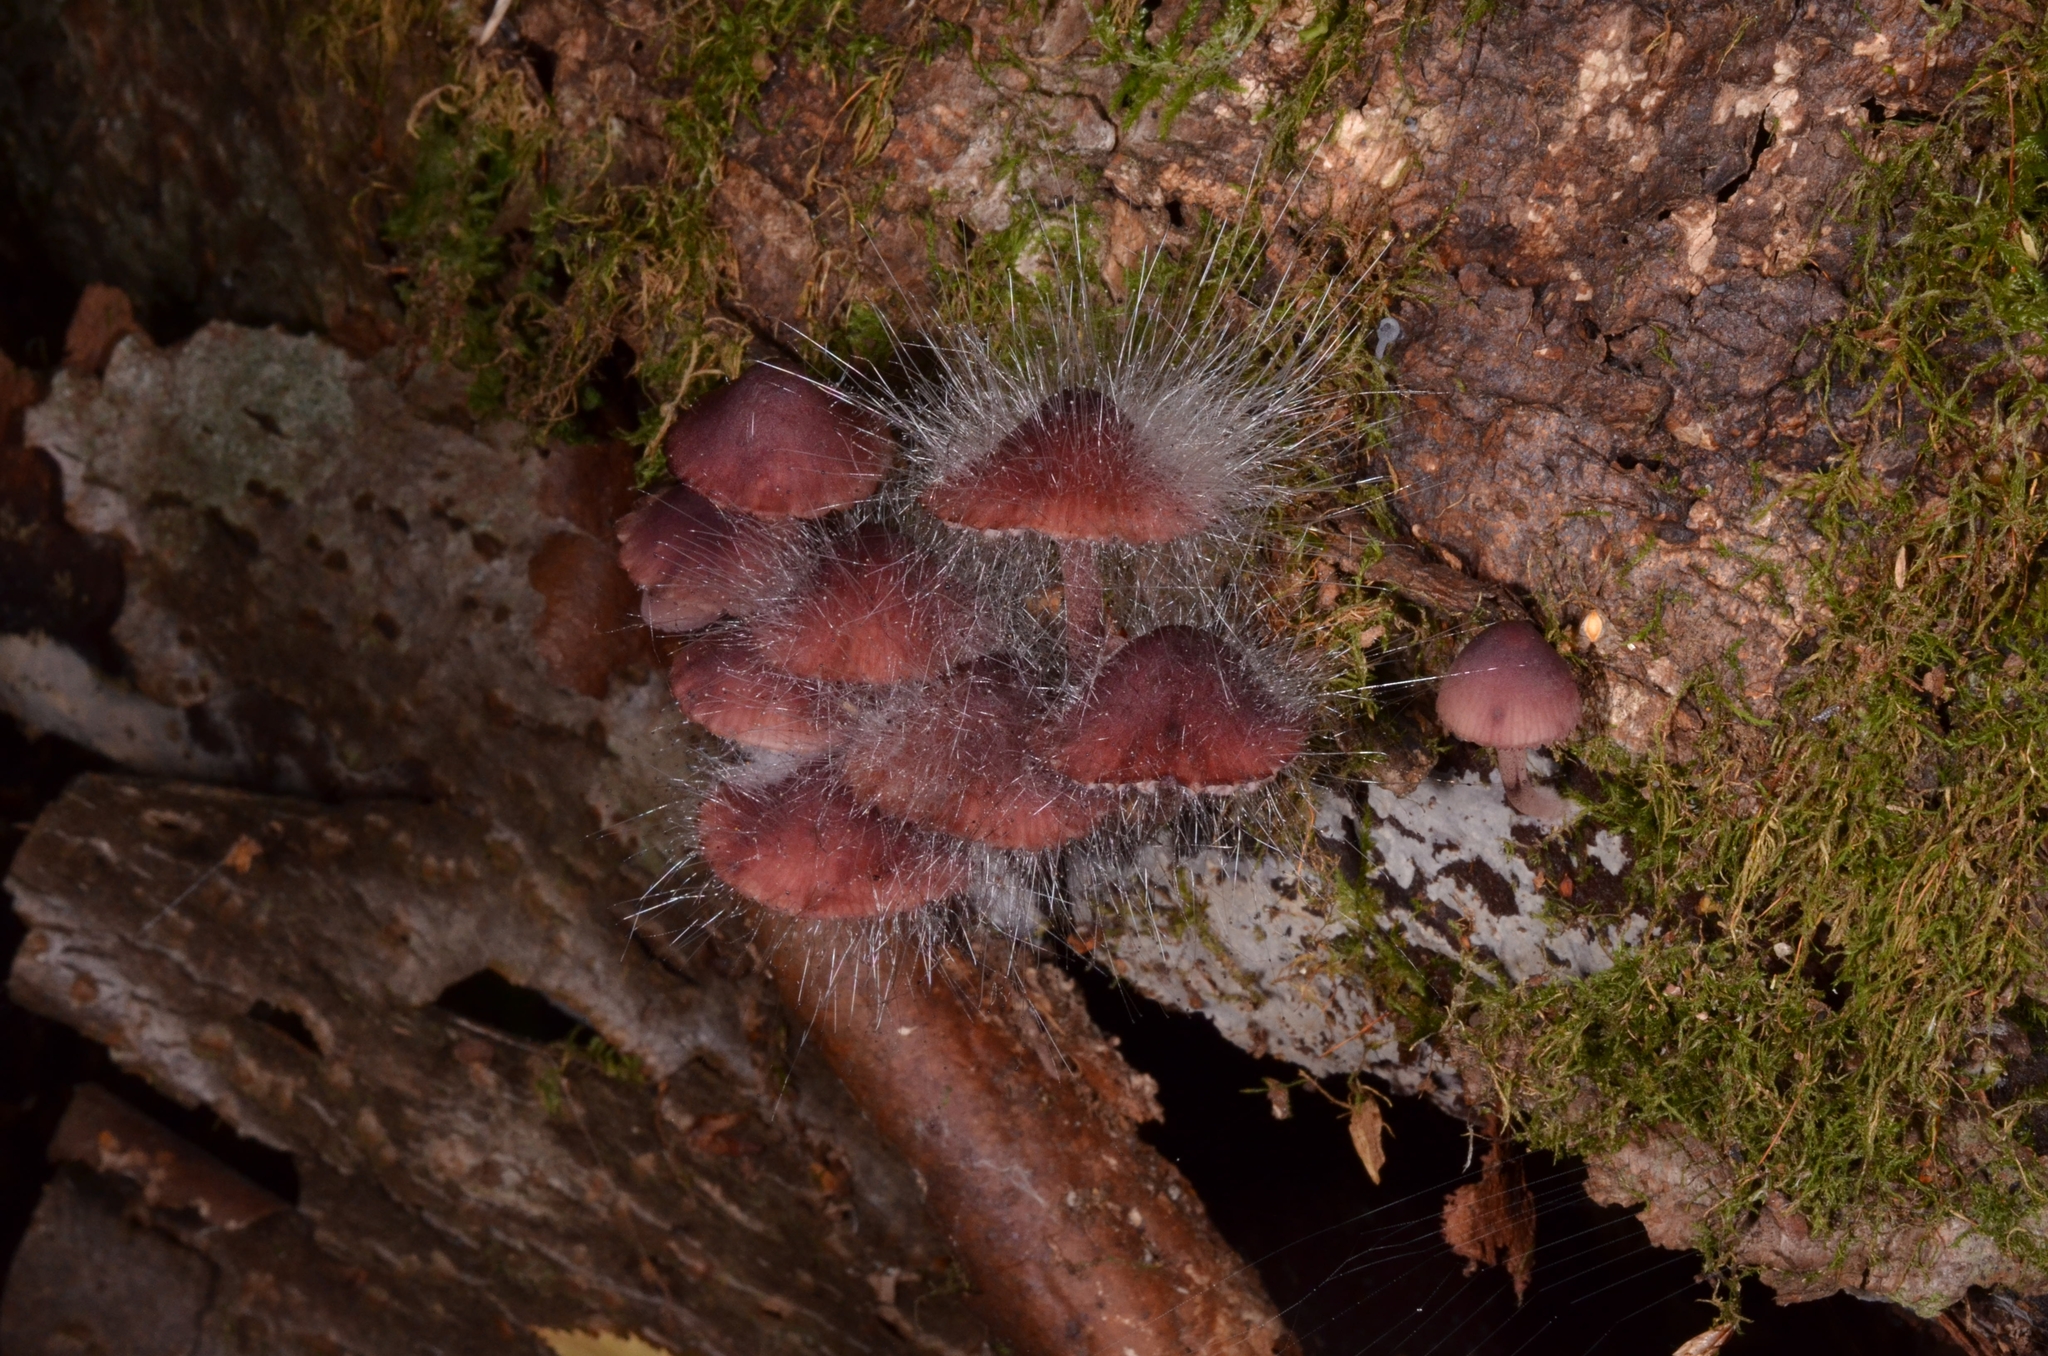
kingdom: Fungi
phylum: Mucoromycota
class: Mucoromycetes
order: Mucorales
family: Phycomycetaceae
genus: Spinellus
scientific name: Spinellus fusiger
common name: Bonnet mould
